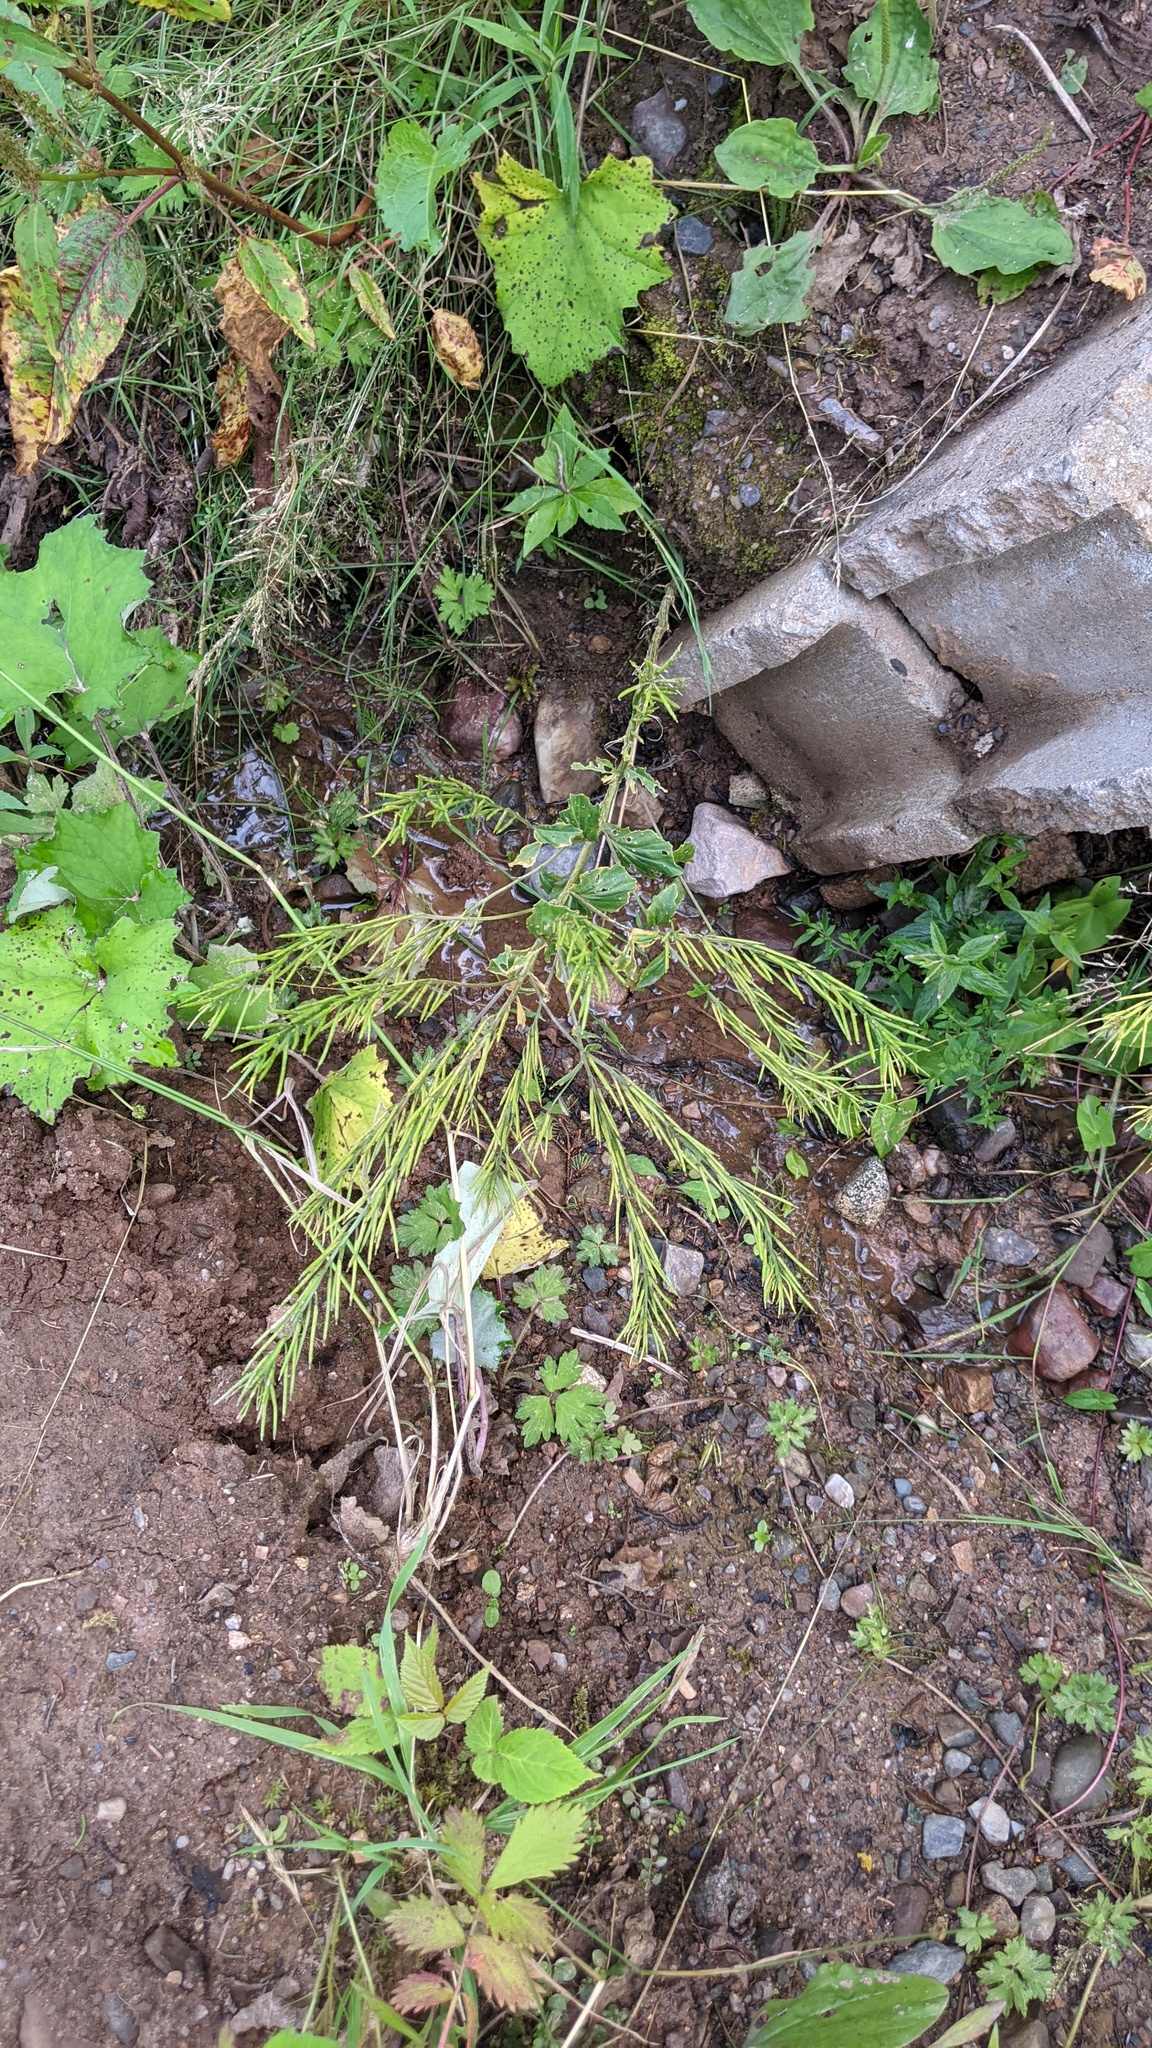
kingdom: Plantae
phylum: Tracheophyta
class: Magnoliopsida
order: Brassicales
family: Brassicaceae
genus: Barbarea
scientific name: Barbarea vulgaris
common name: Cressy-greens
